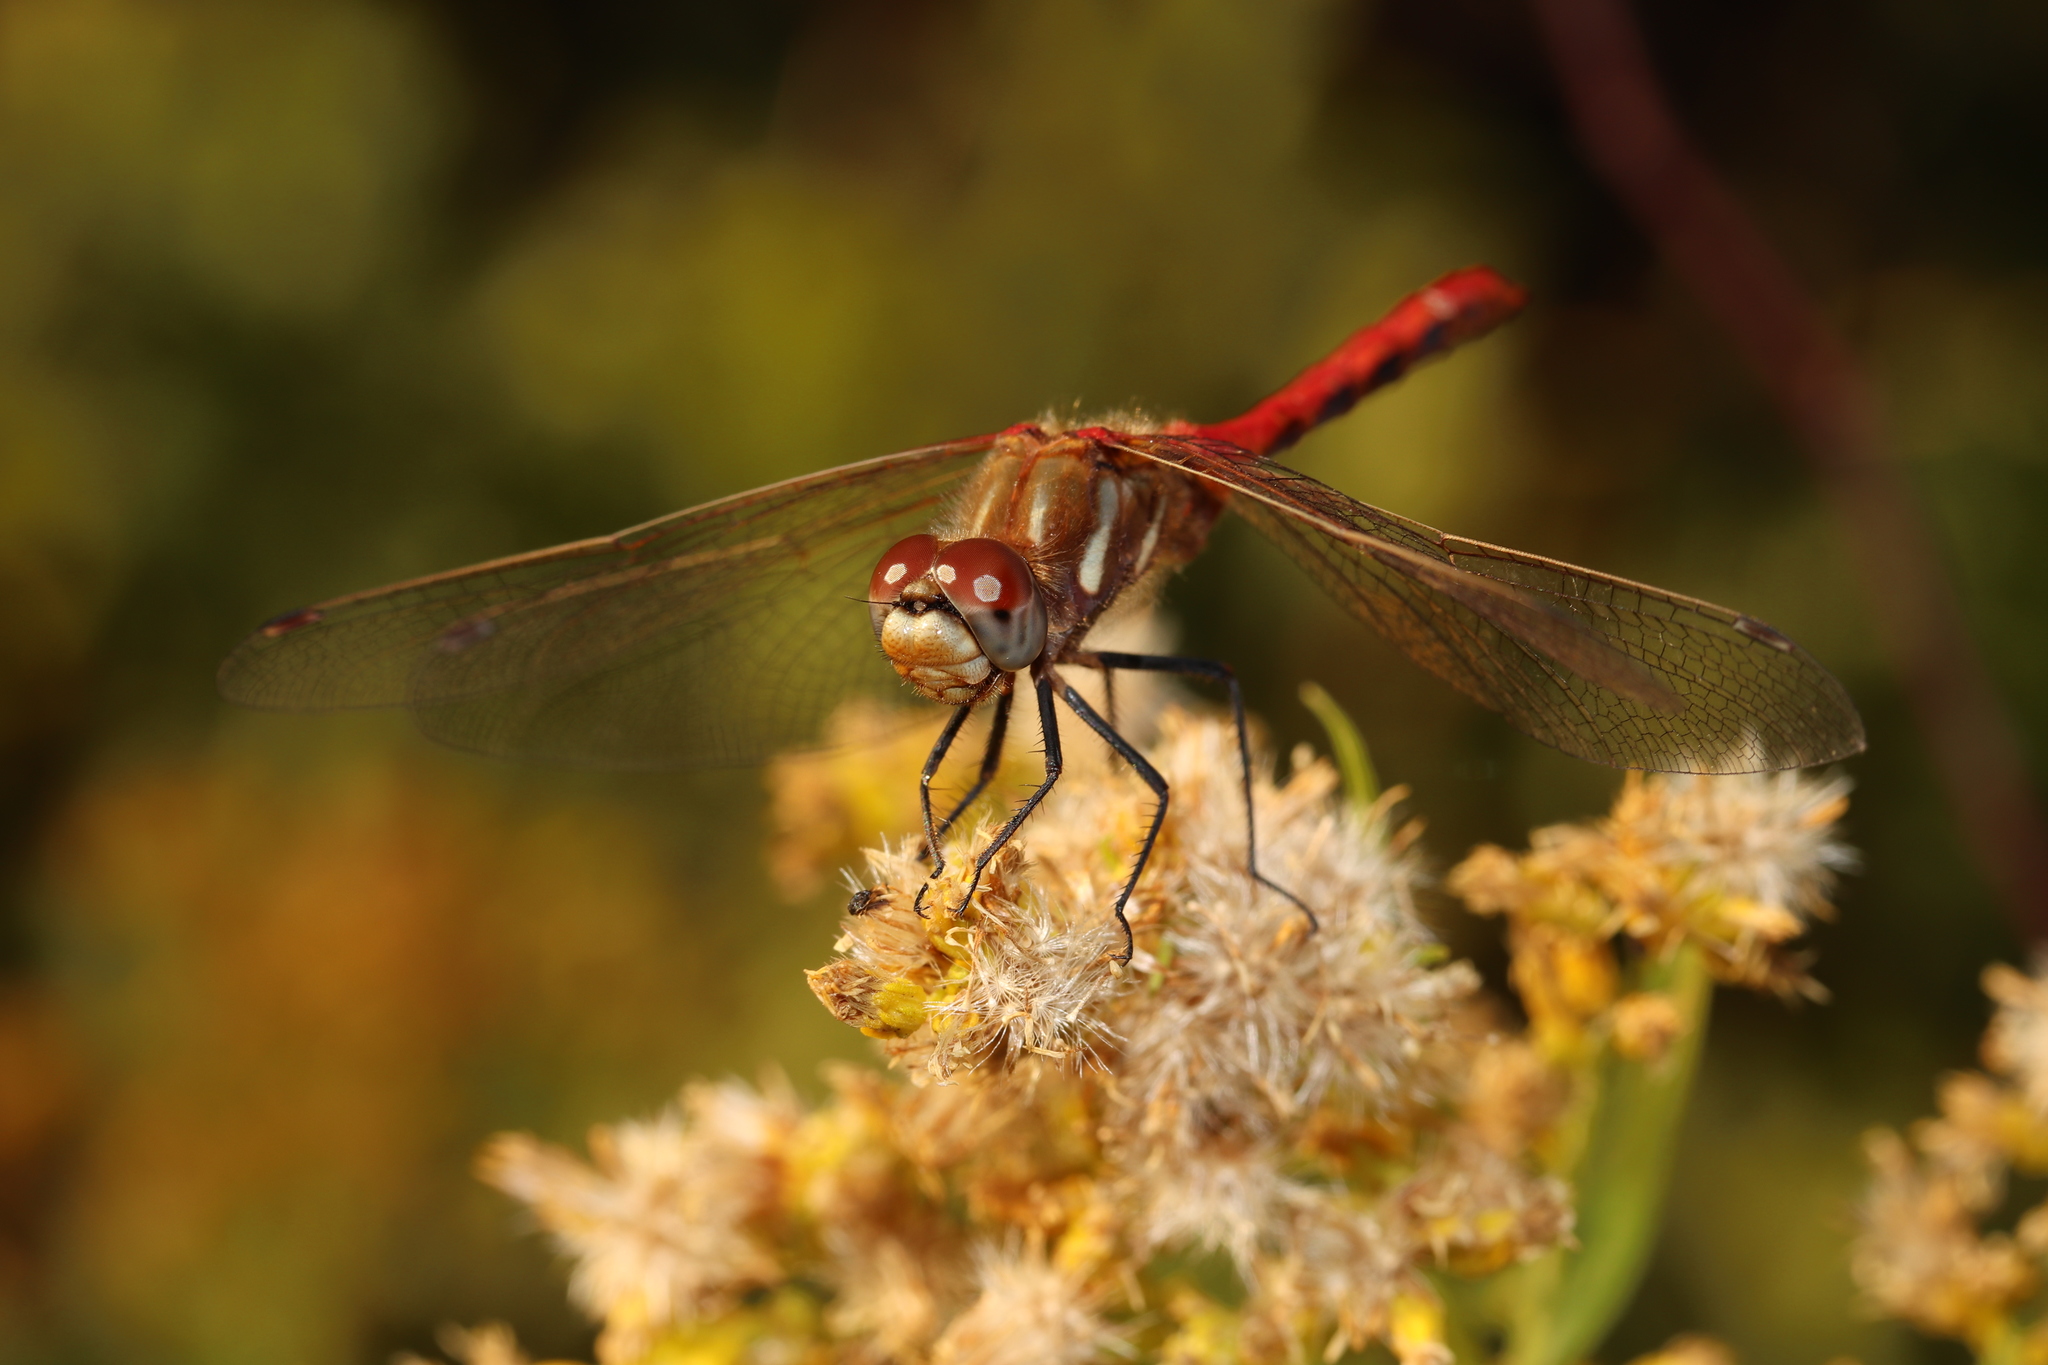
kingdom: Animalia
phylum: Arthropoda
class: Insecta
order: Odonata
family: Libellulidae
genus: Sympetrum
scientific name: Sympetrum pallipes
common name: Striped meadowhawk
